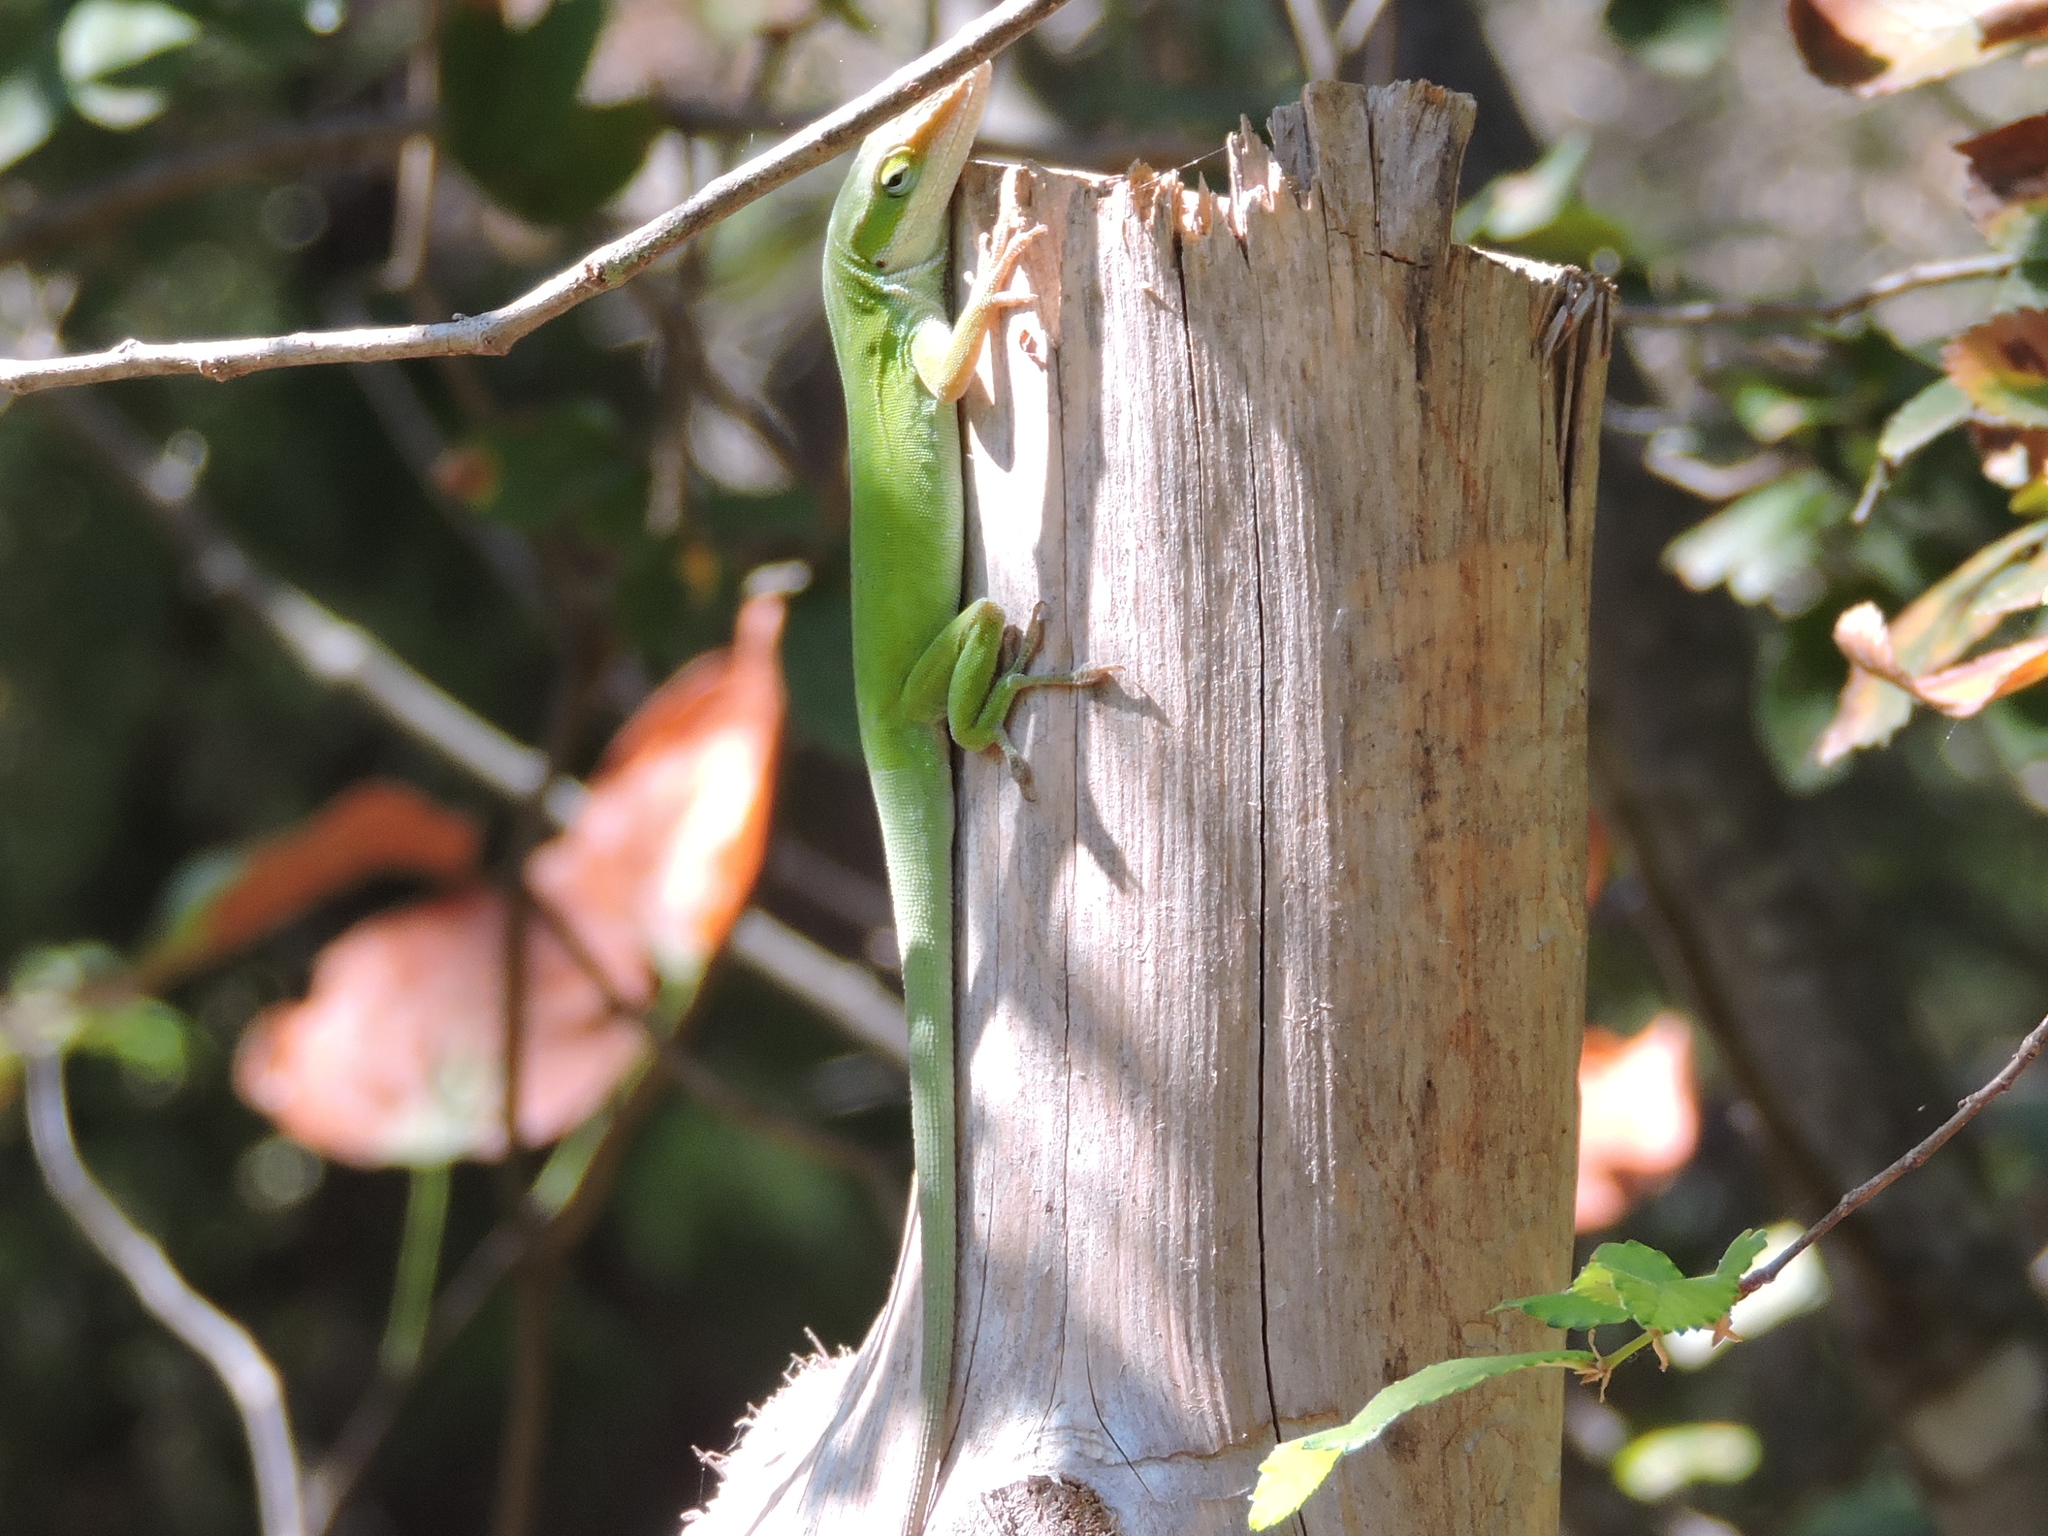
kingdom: Animalia
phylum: Chordata
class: Squamata
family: Dactyloidae
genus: Anolis
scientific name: Anolis carolinensis
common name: Green anole
